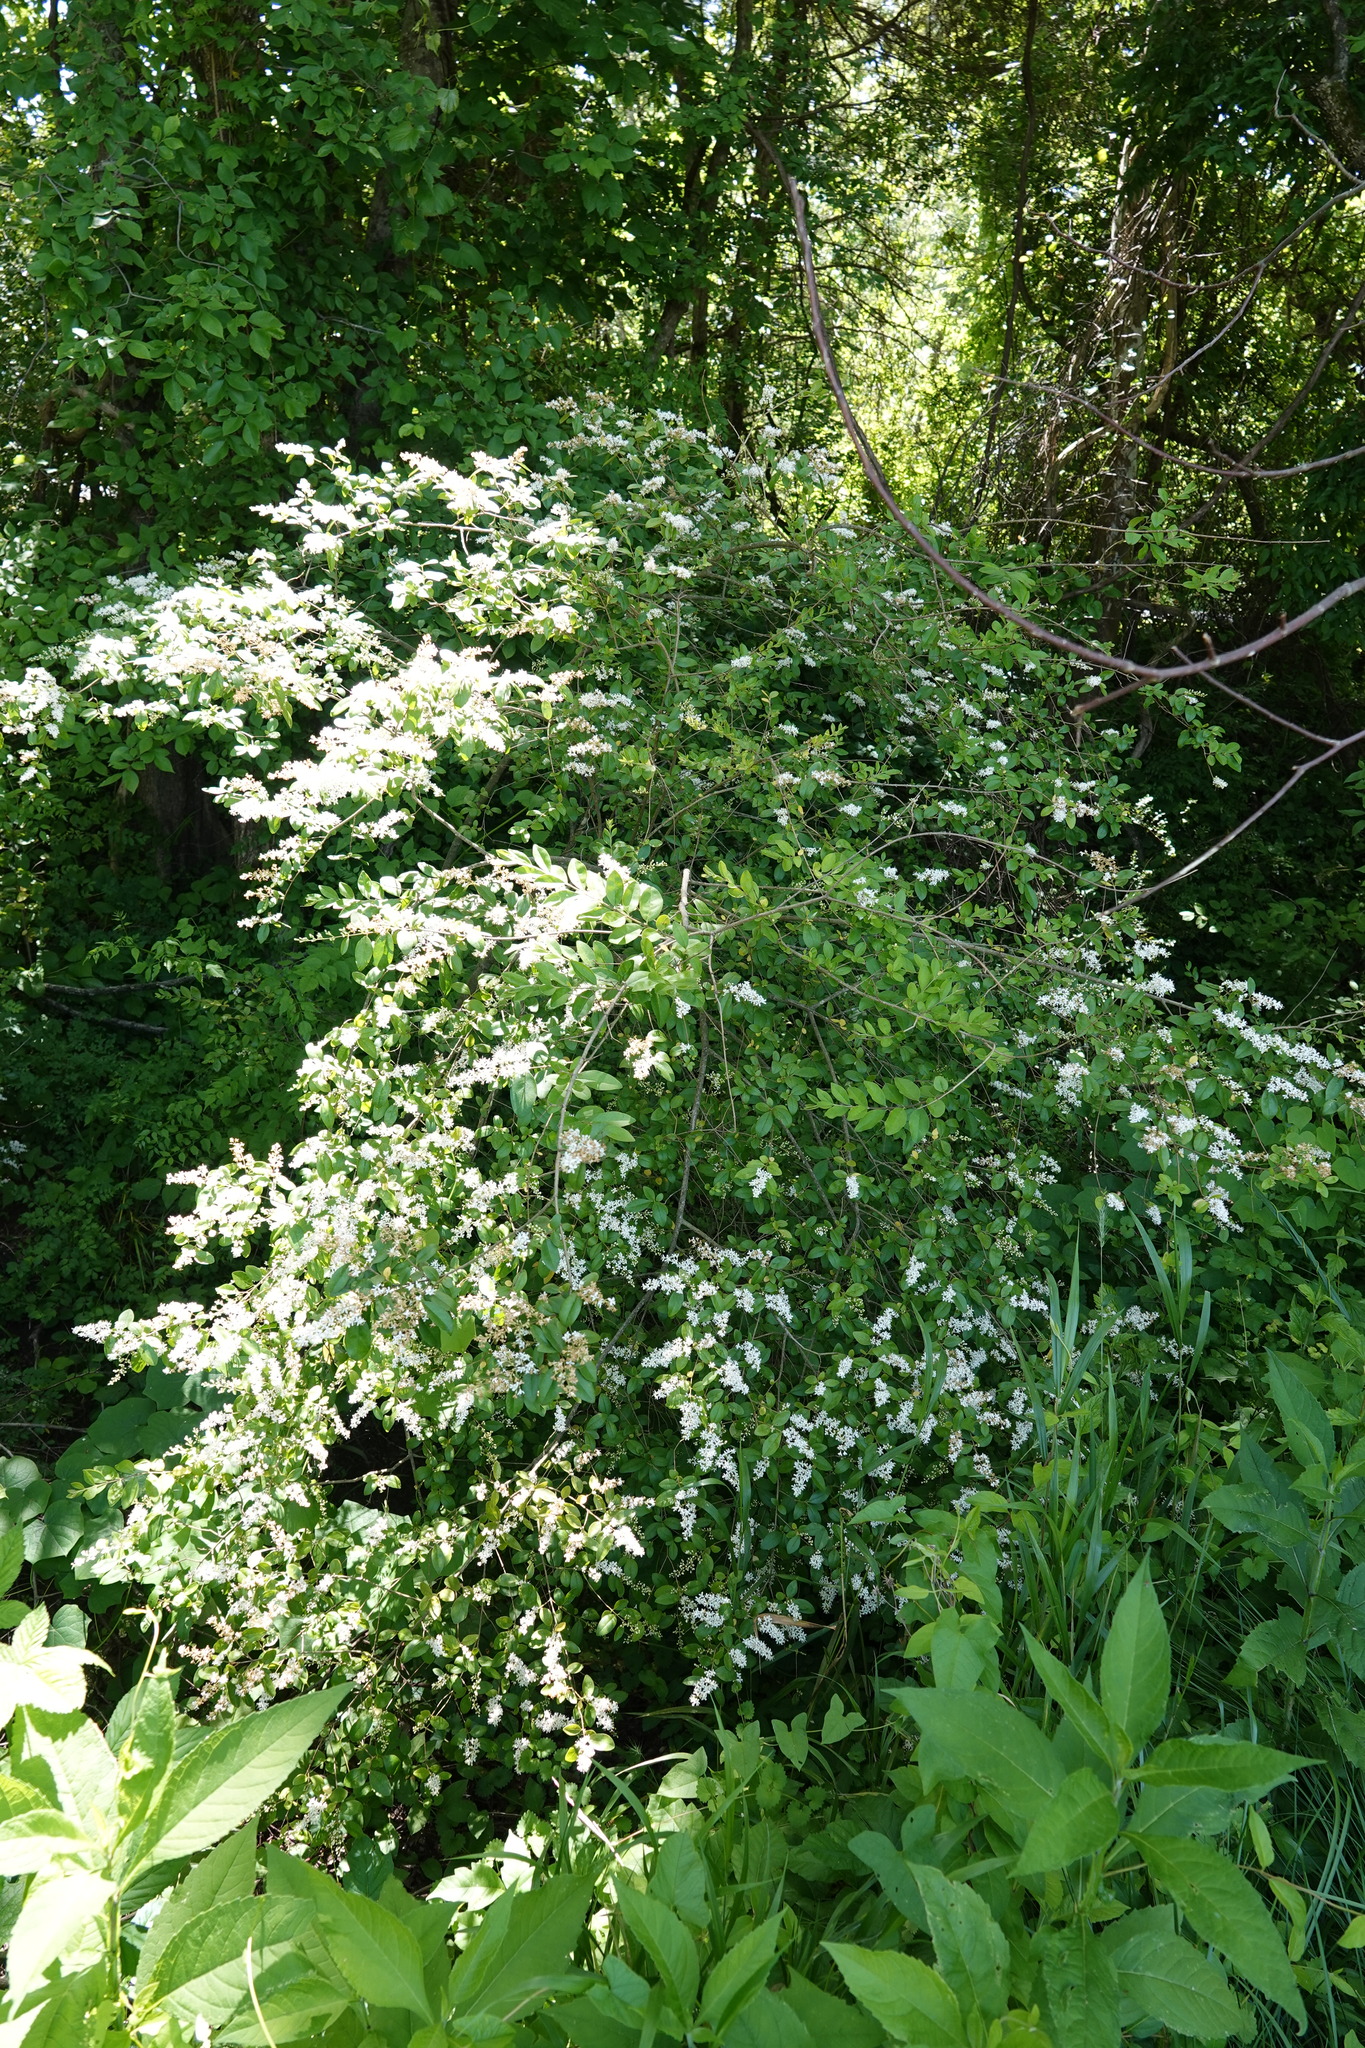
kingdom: Plantae
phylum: Tracheophyta
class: Magnoliopsida
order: Lamiales
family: Oleaceae
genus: Ligustrum
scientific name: Ligustrum sinense
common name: Chinese privet
